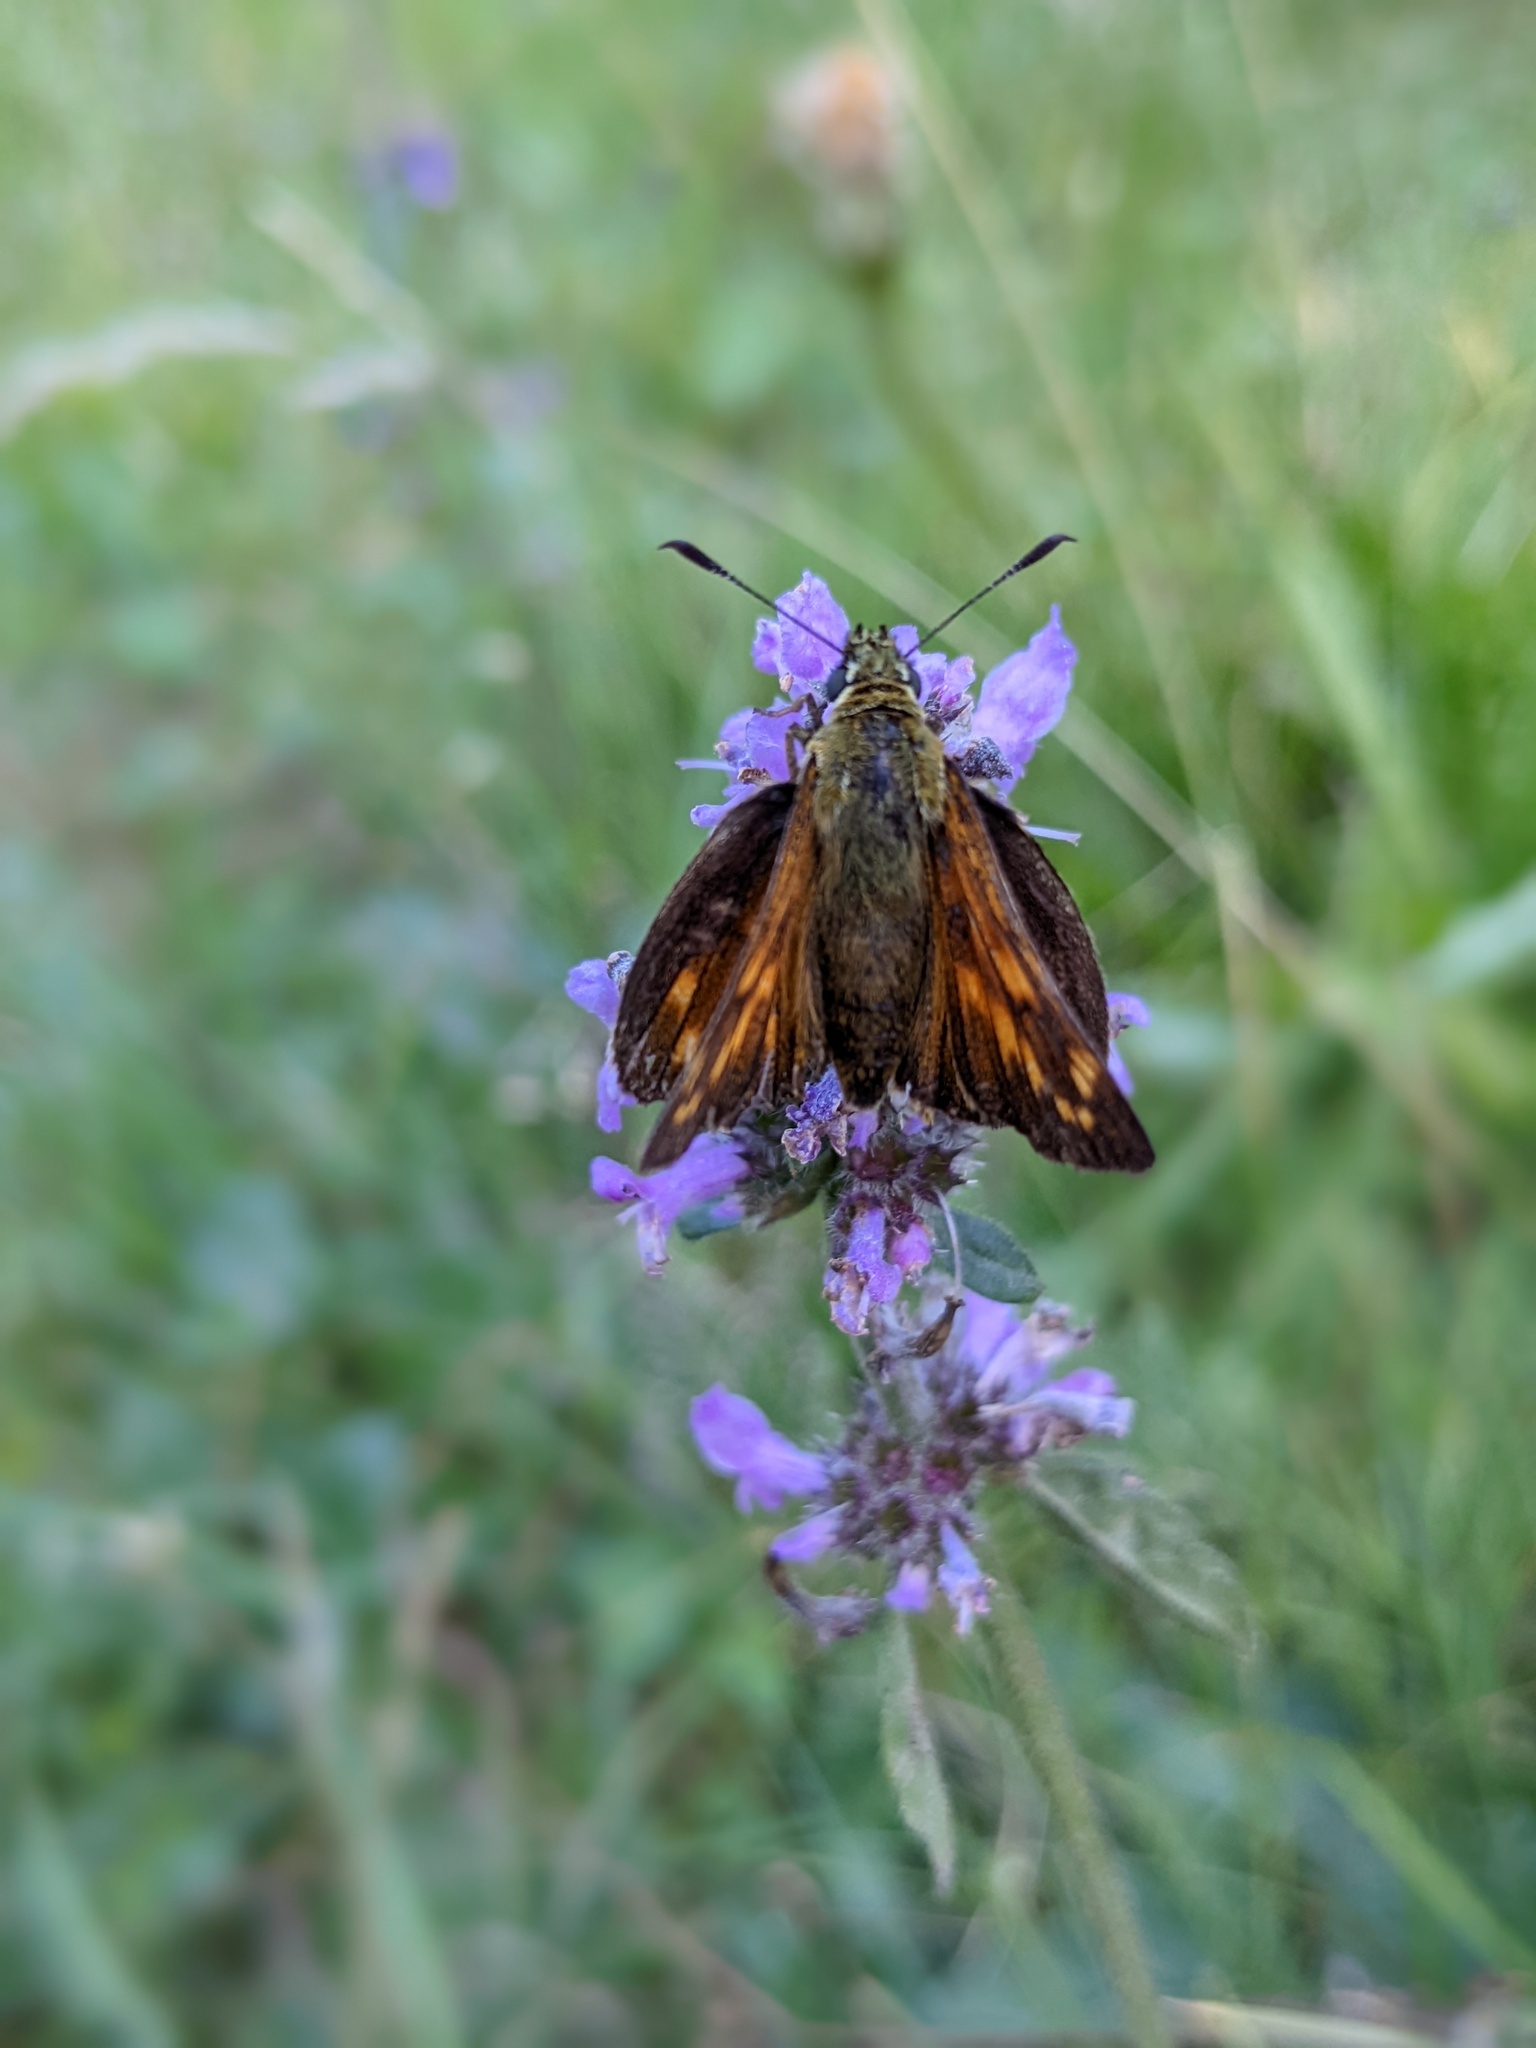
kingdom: Animalia
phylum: Arthropoda
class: Insecta
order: Lepidoptera
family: Hesperiidae
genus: Ochlodes
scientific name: Ochlodes venata
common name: Large skipper
